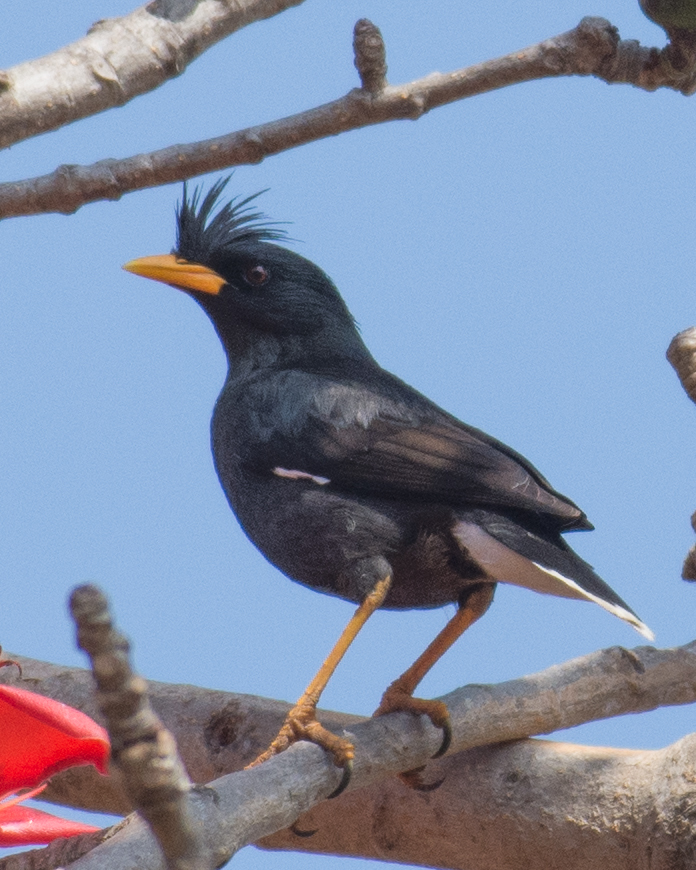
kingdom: Animalia
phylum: Chordata
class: Aves
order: Passeriformes
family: Sturnidae
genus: Acridotheres
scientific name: Acridotheres grandis
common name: Great myna
